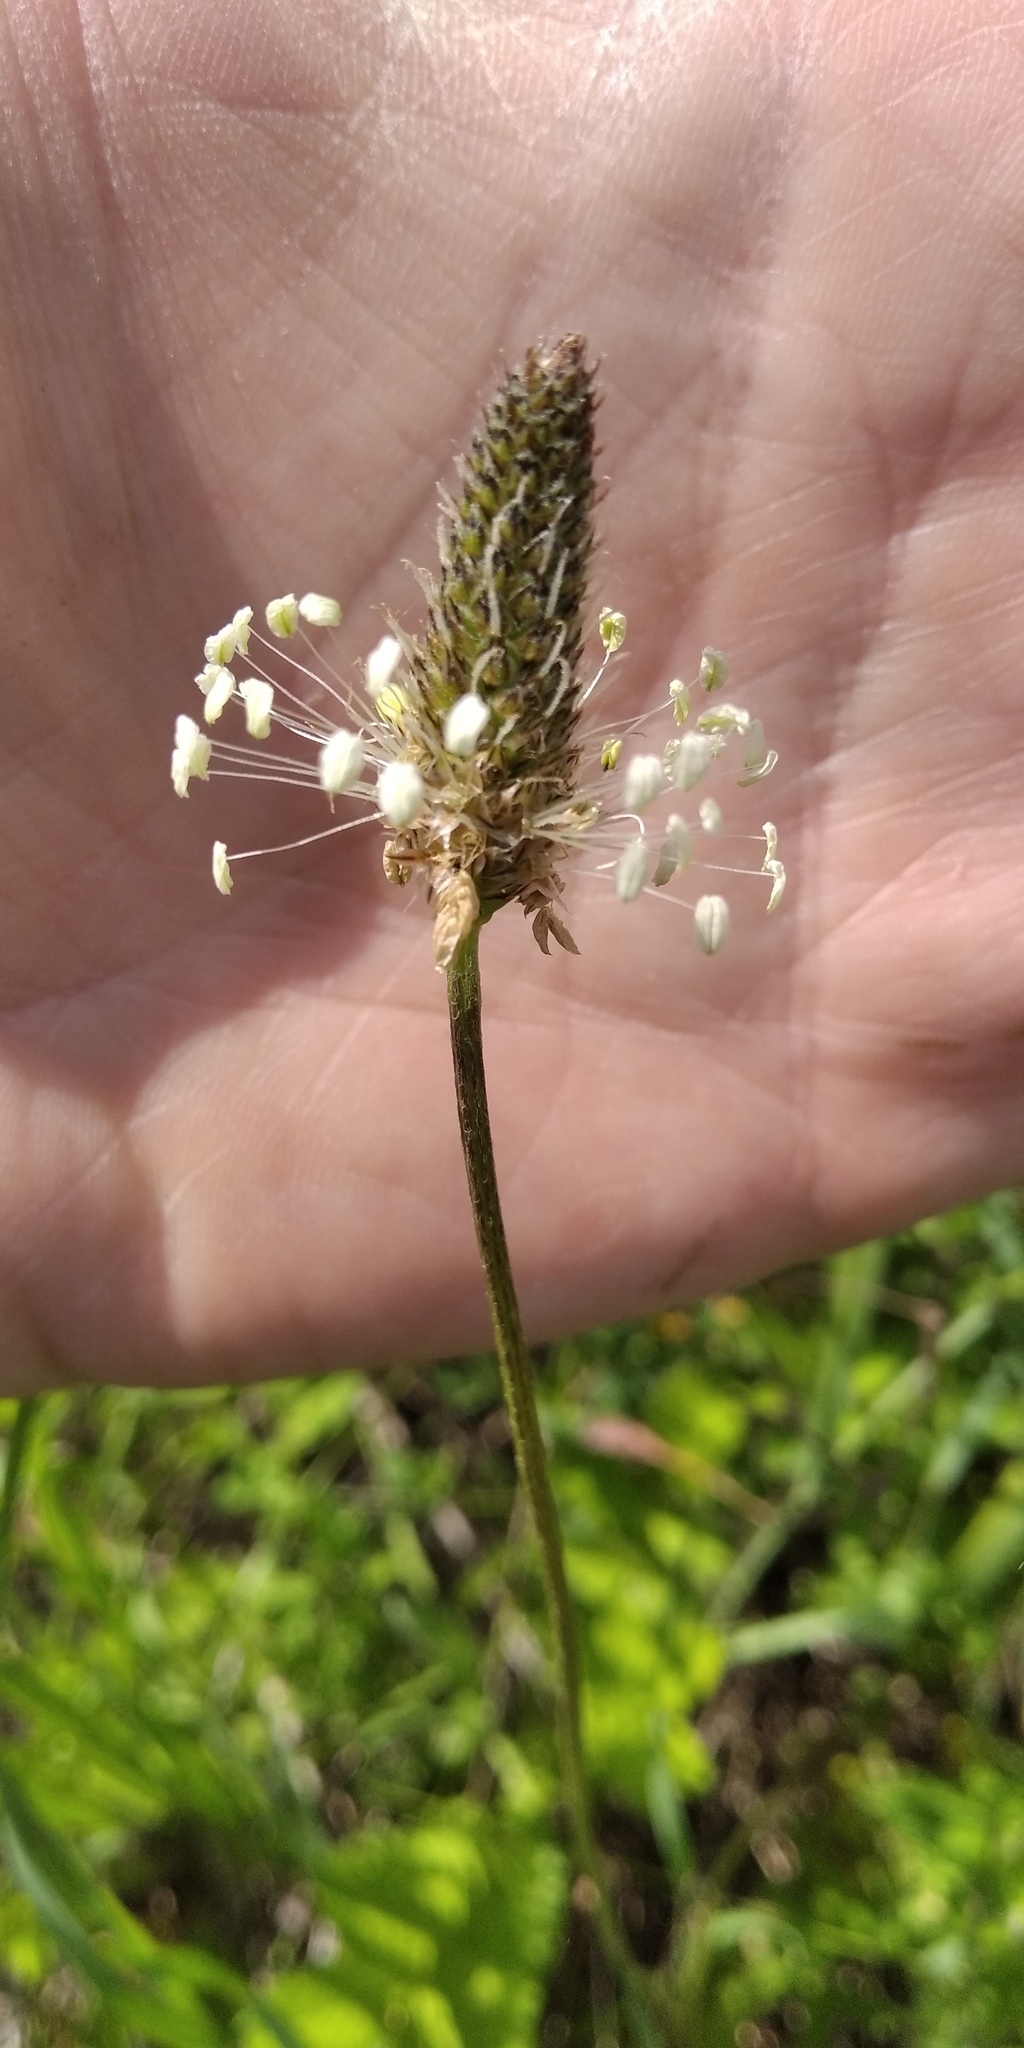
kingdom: Plantae
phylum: Tracheophyta
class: Magnoliopsida
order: Lamiales
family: Plantaginaceae
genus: Plantago
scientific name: Plantago lanceolata
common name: Ribwort plantain
